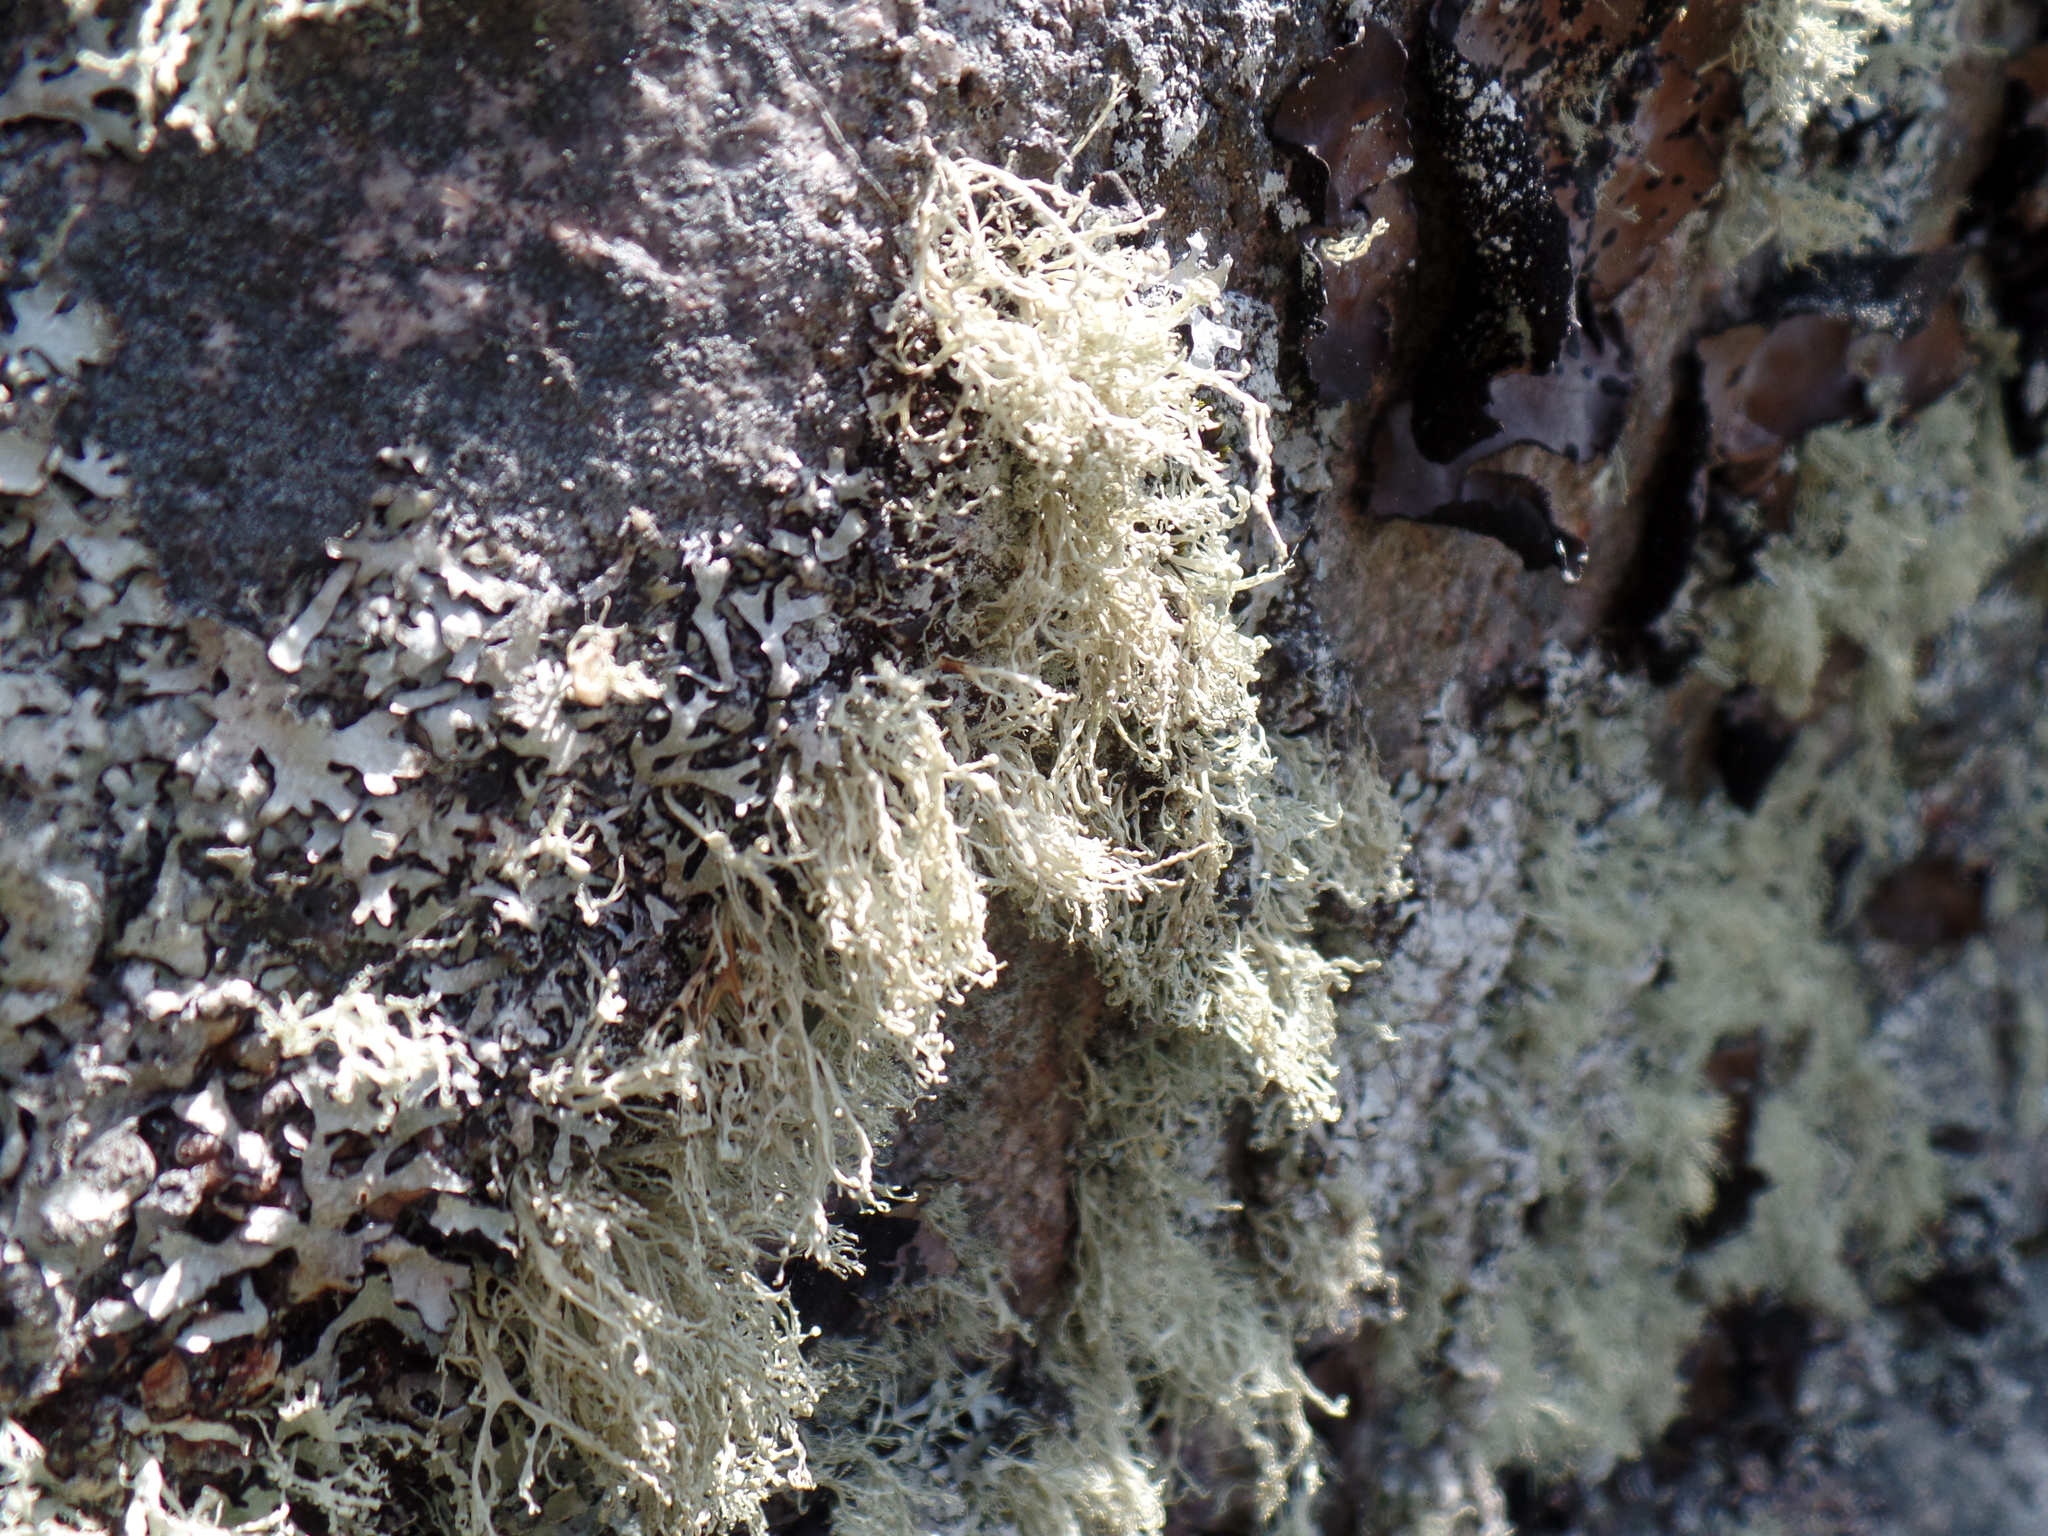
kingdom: Fungi
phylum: Ascomycota
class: Lecanoromycetes
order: Lecanorales
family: Ramalinaceae
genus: Ramalina
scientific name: Ramalina intermedia
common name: Rock bushy lichen
